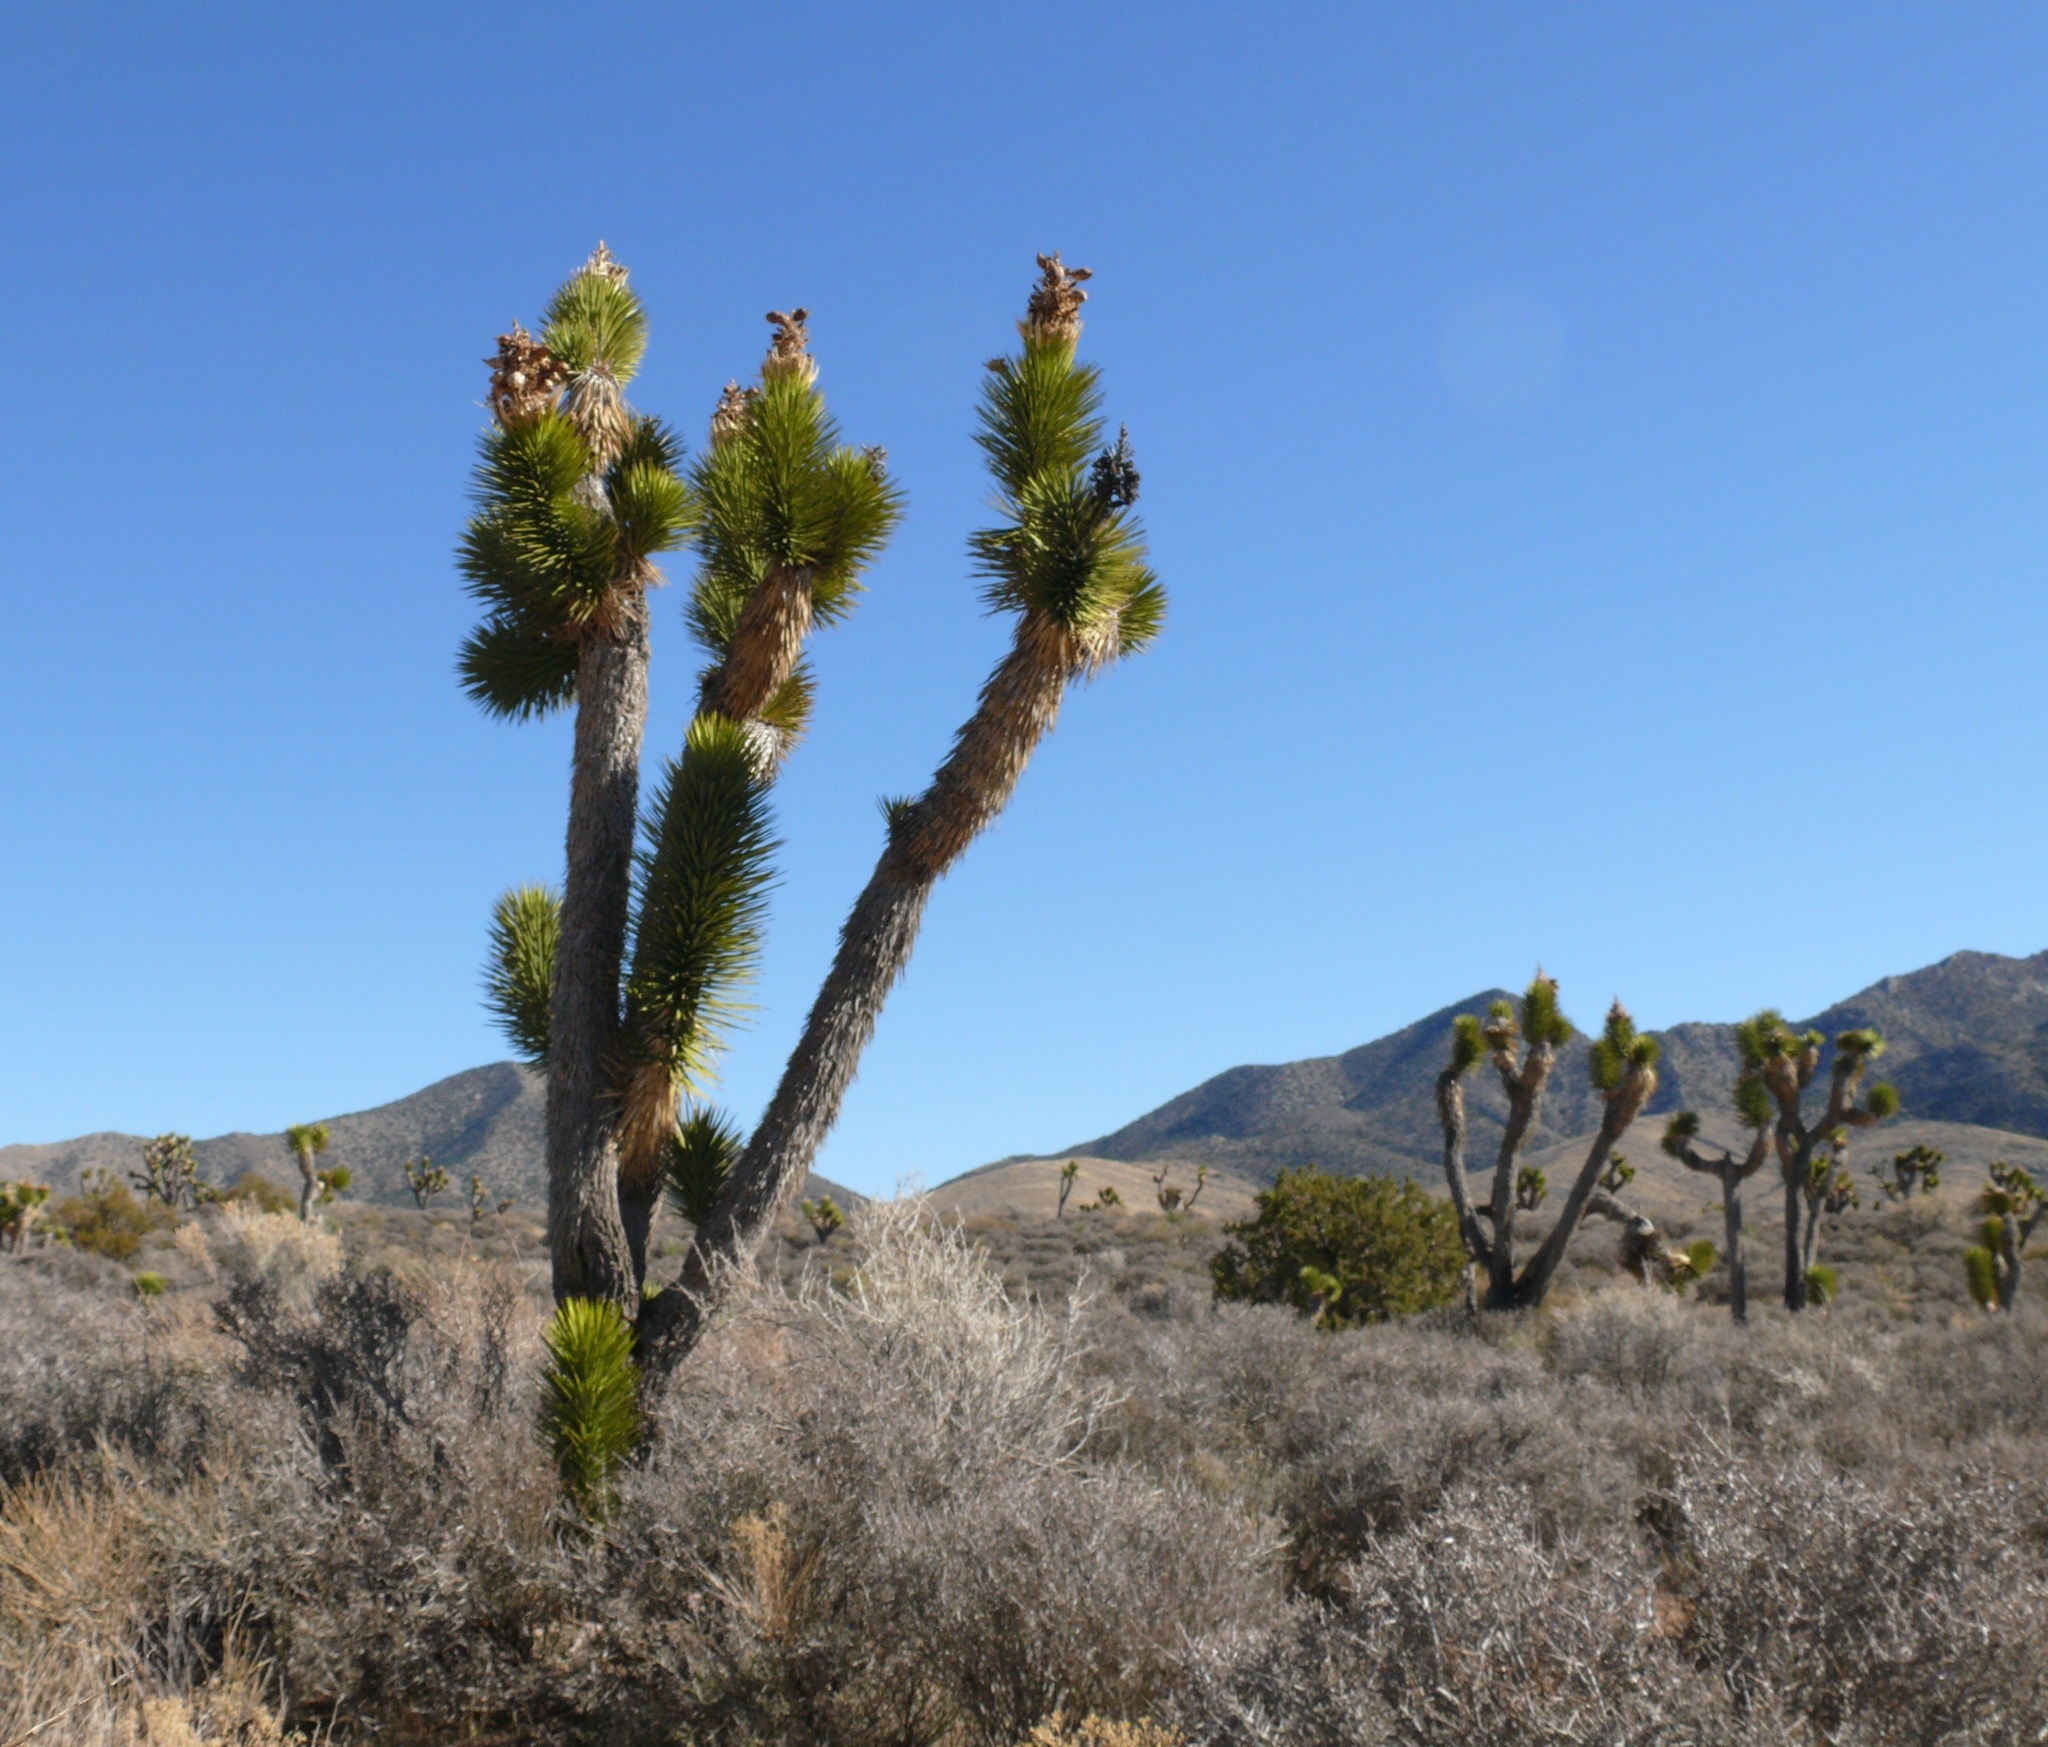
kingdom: Plantae
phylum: Tracheophyta
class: Liliopsida
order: Asparagales
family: Asparagaceae
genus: Yucca
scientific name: Yucca brevifolia
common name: Joshua tree
